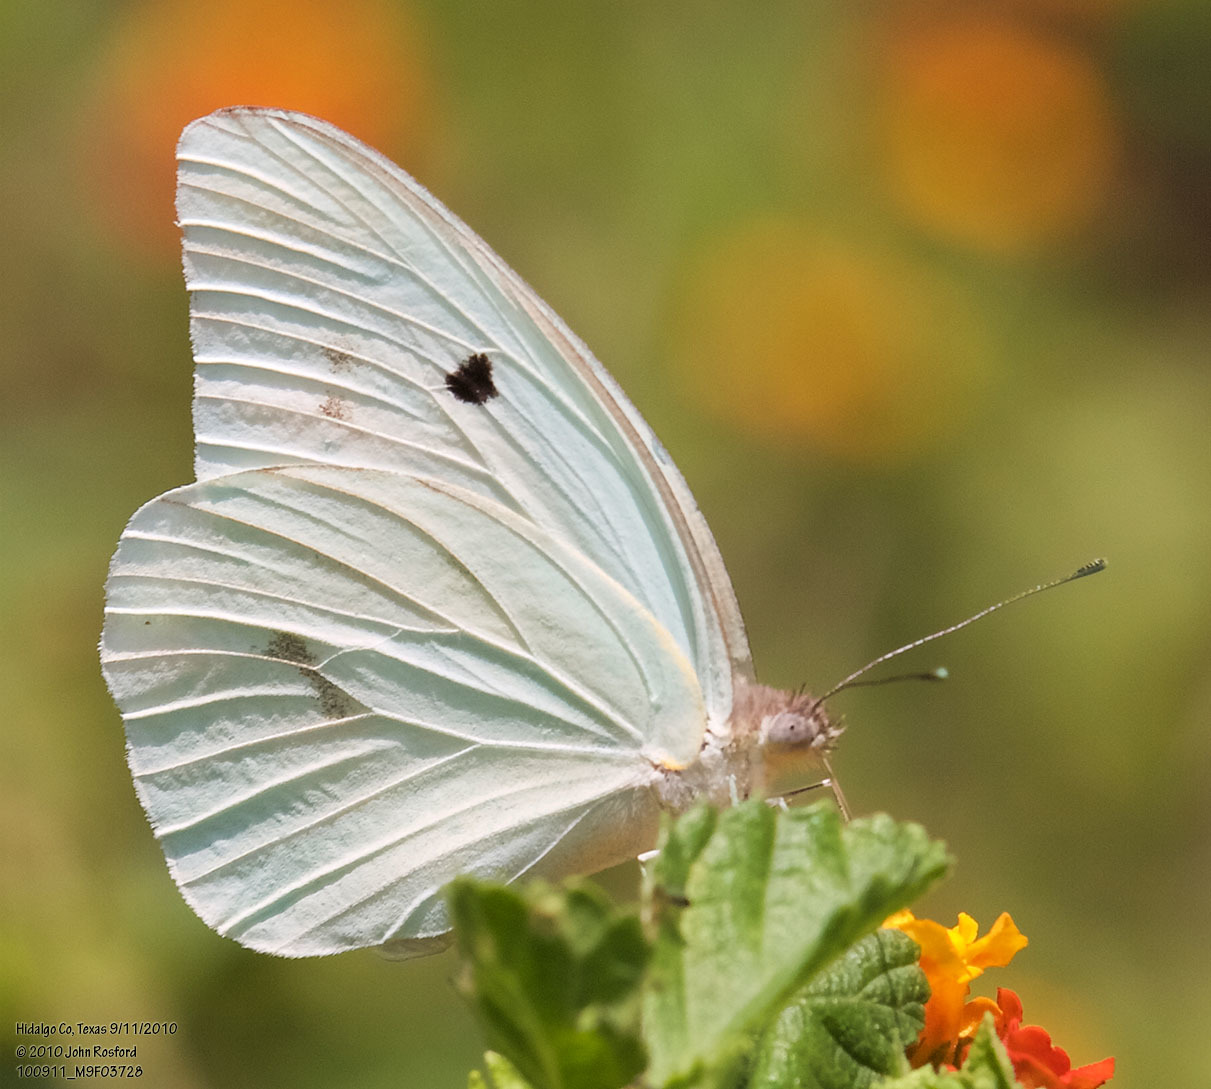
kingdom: Animalia
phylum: Arthropoda
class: Insecta
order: Lepidoptera
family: Pieridae
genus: Ganyra
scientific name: Ganyra josephina
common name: Giant white
